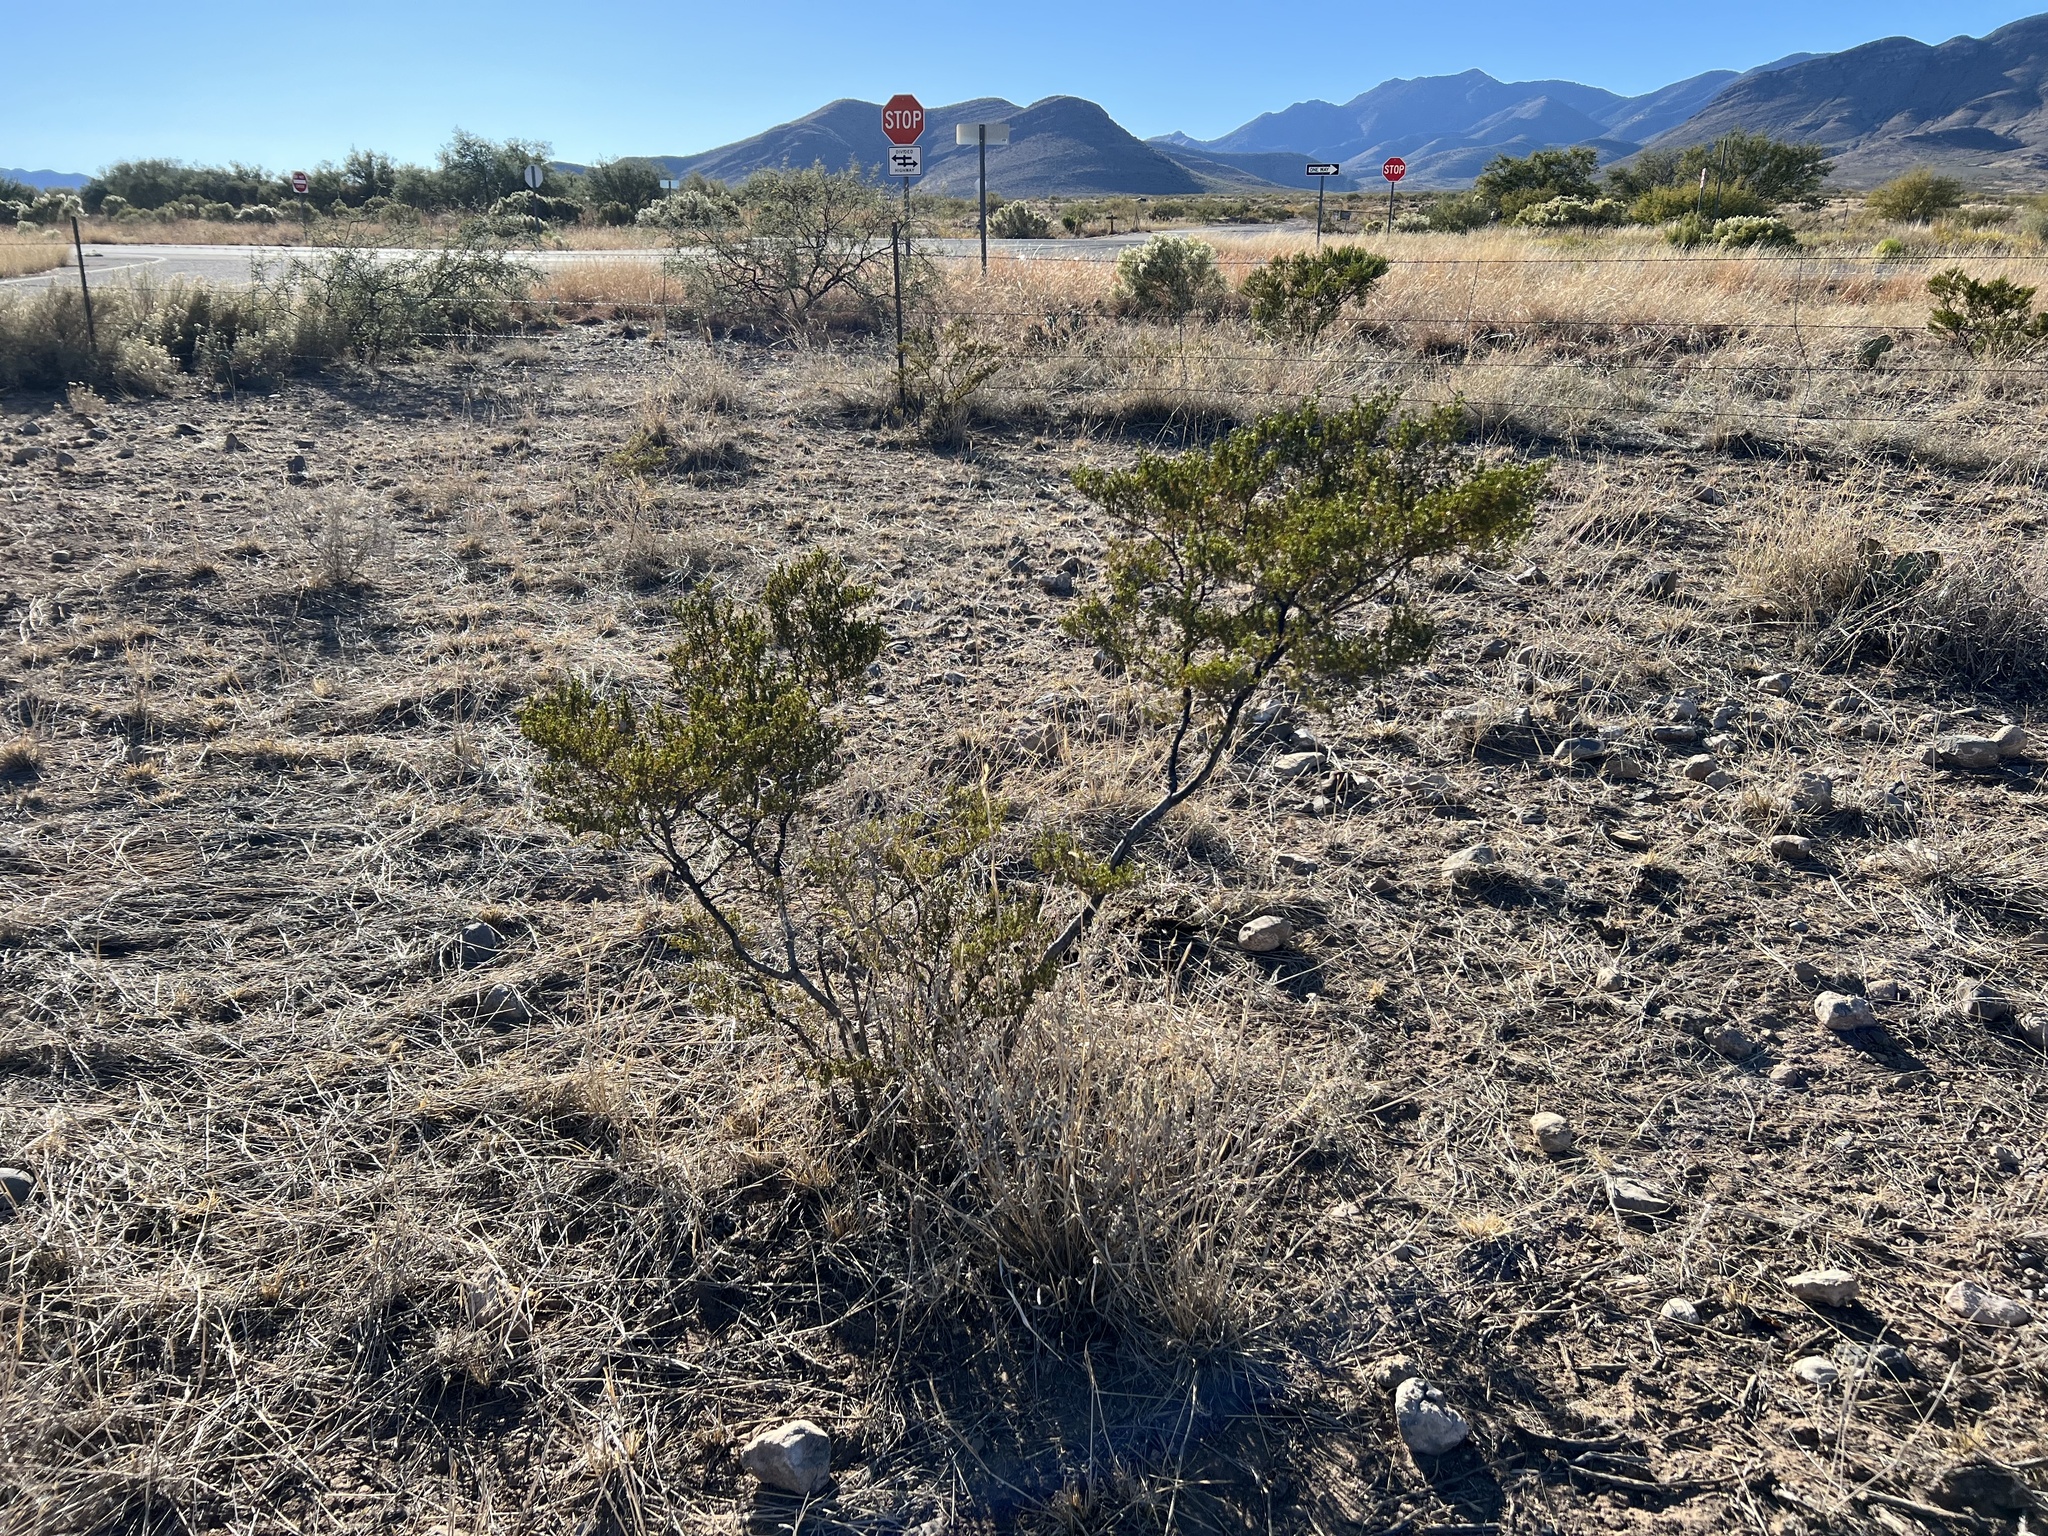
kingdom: Plantae
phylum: Tracheophyta
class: Magnoliopsida
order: Zygophyllales
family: Zygophyllaceae
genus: Larrea
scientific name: Larrea tridentata
